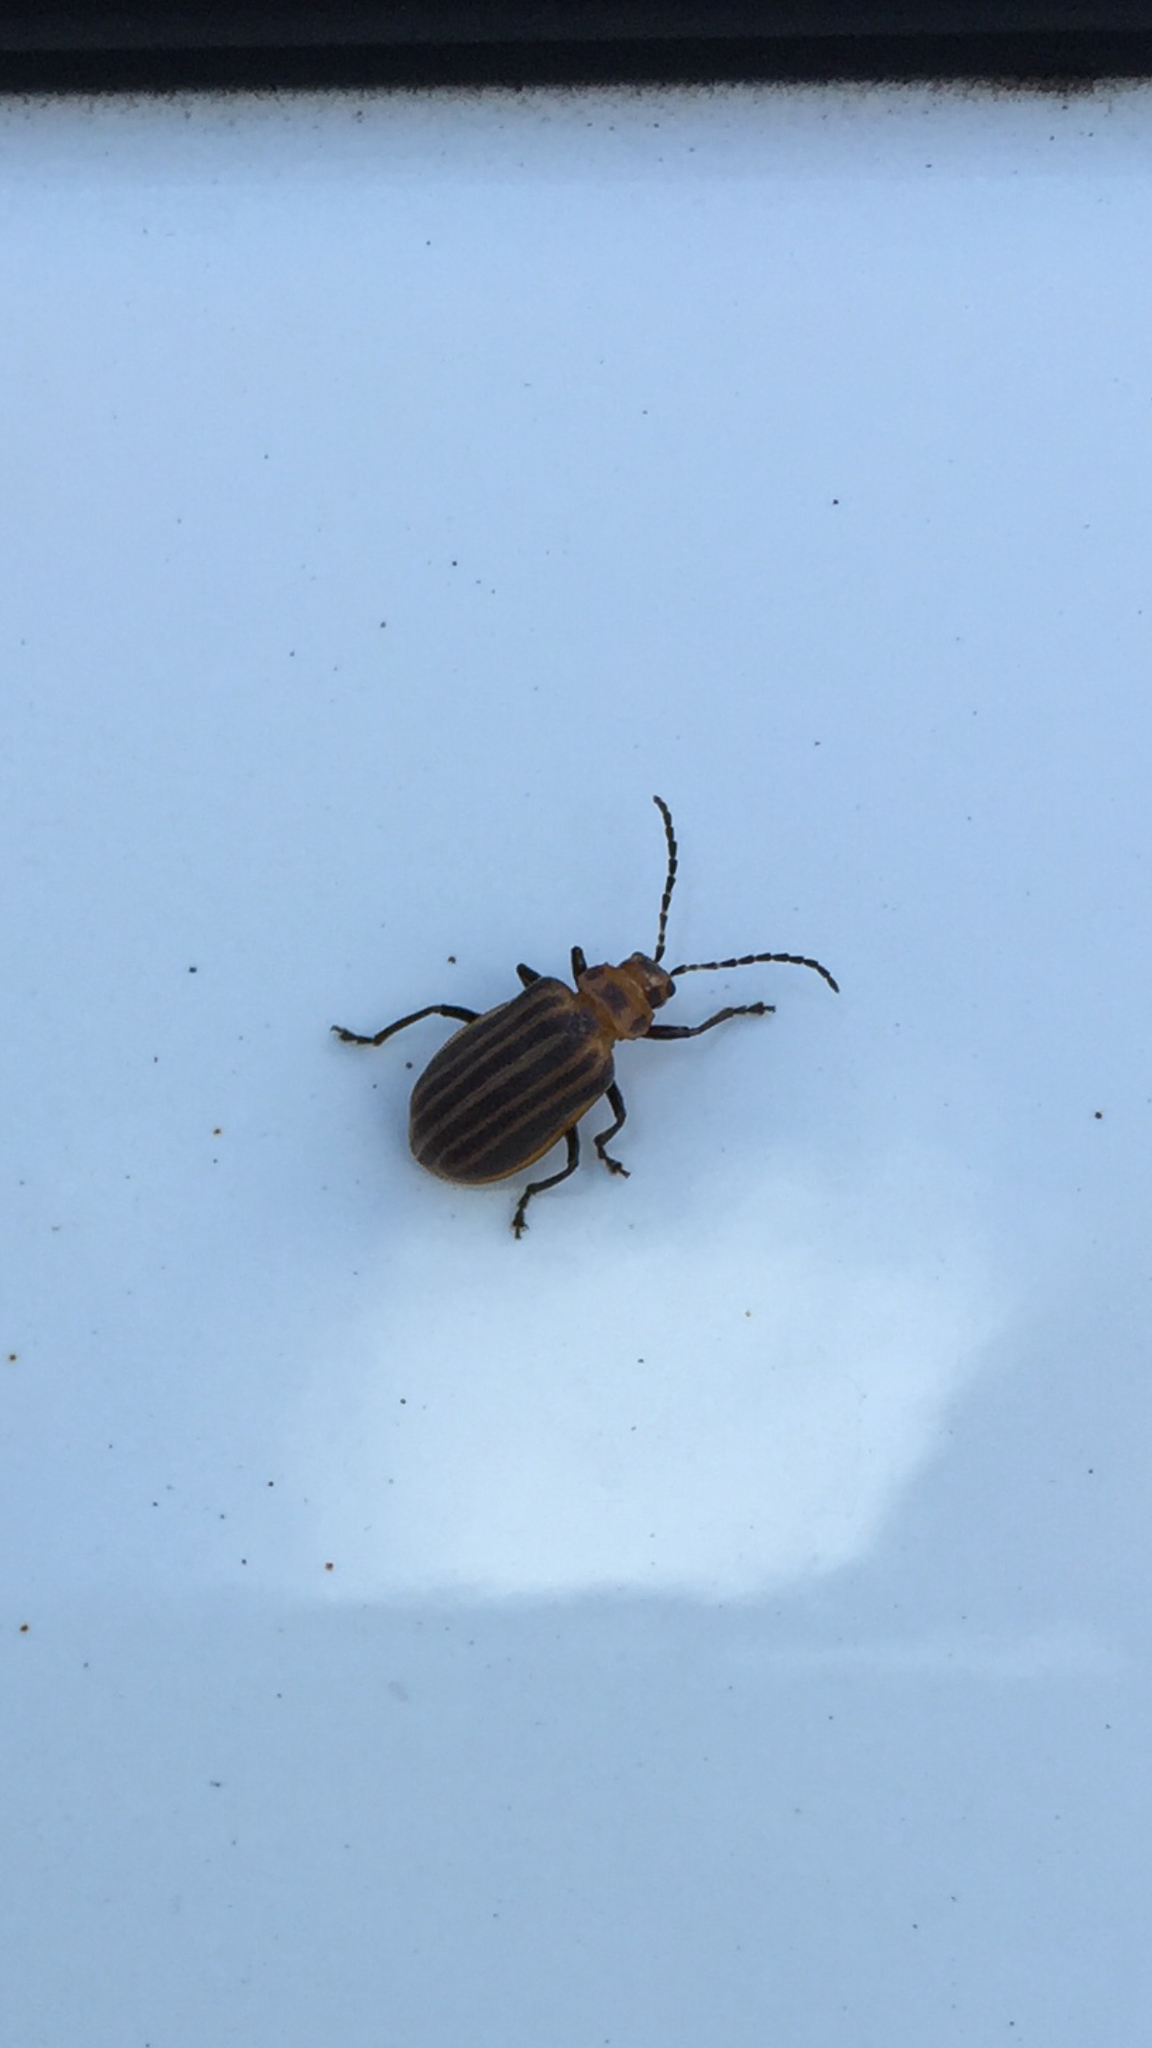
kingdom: Animalia
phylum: Arthropoda
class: Insecta
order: Coleoptera
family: Chrysomelidae
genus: Neolochmaea
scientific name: Neolochmaea dilatipennis
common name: Skeletonizing leaf beetle
